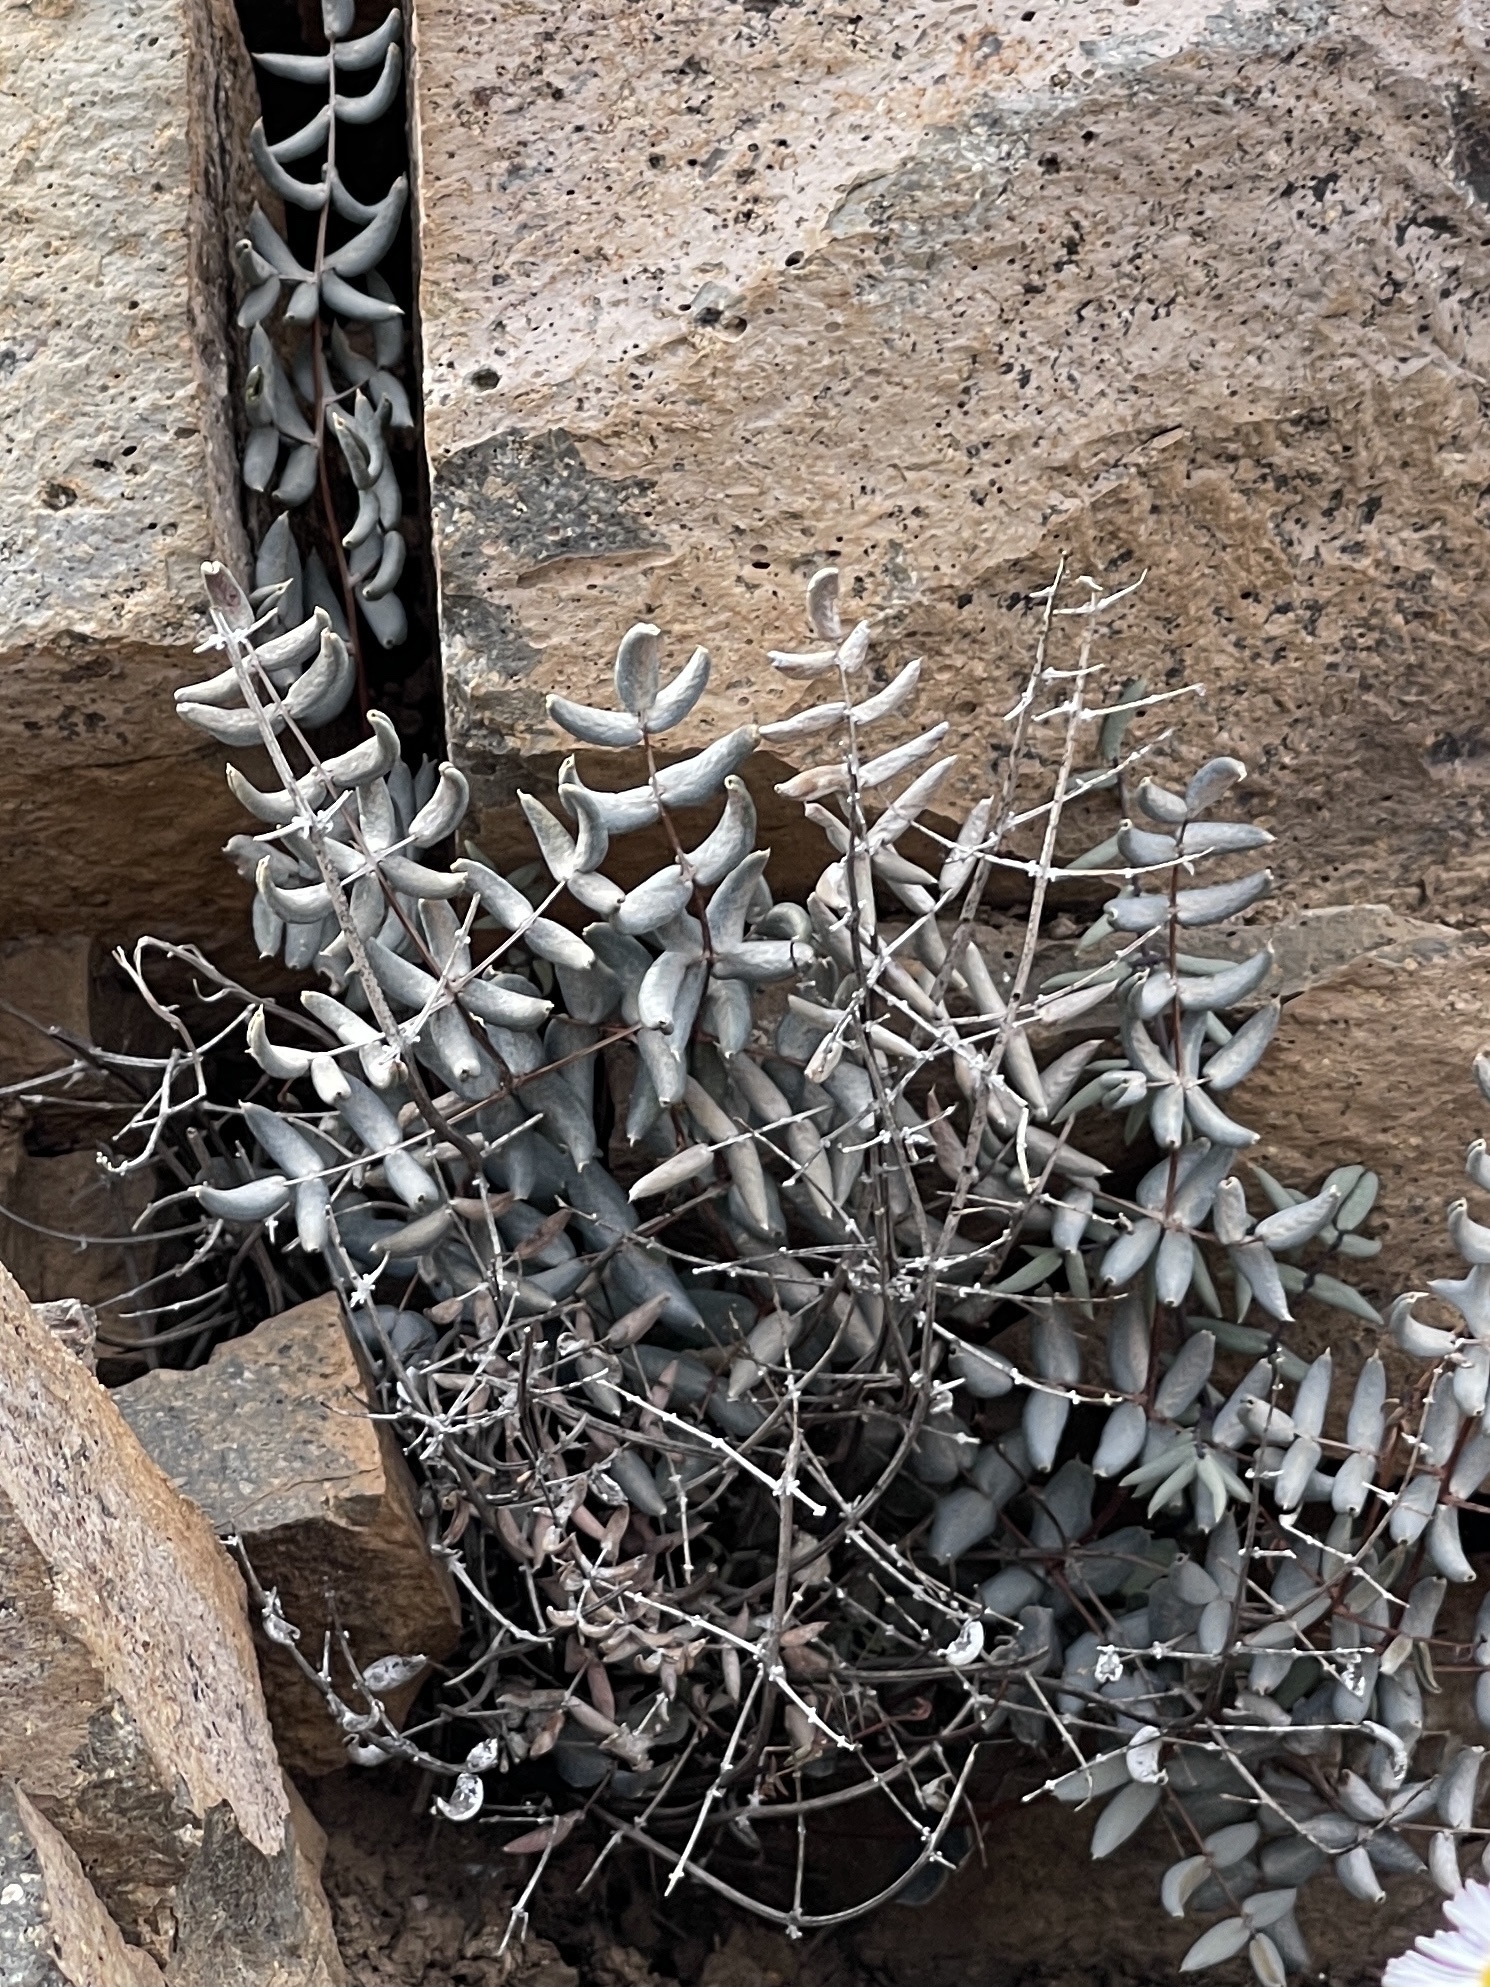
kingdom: Plantae
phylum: Tracheophyta
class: Polypodiopsida
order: Polypodiales
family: Pteridaceae
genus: Pellaea
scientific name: Pellaea truncata
